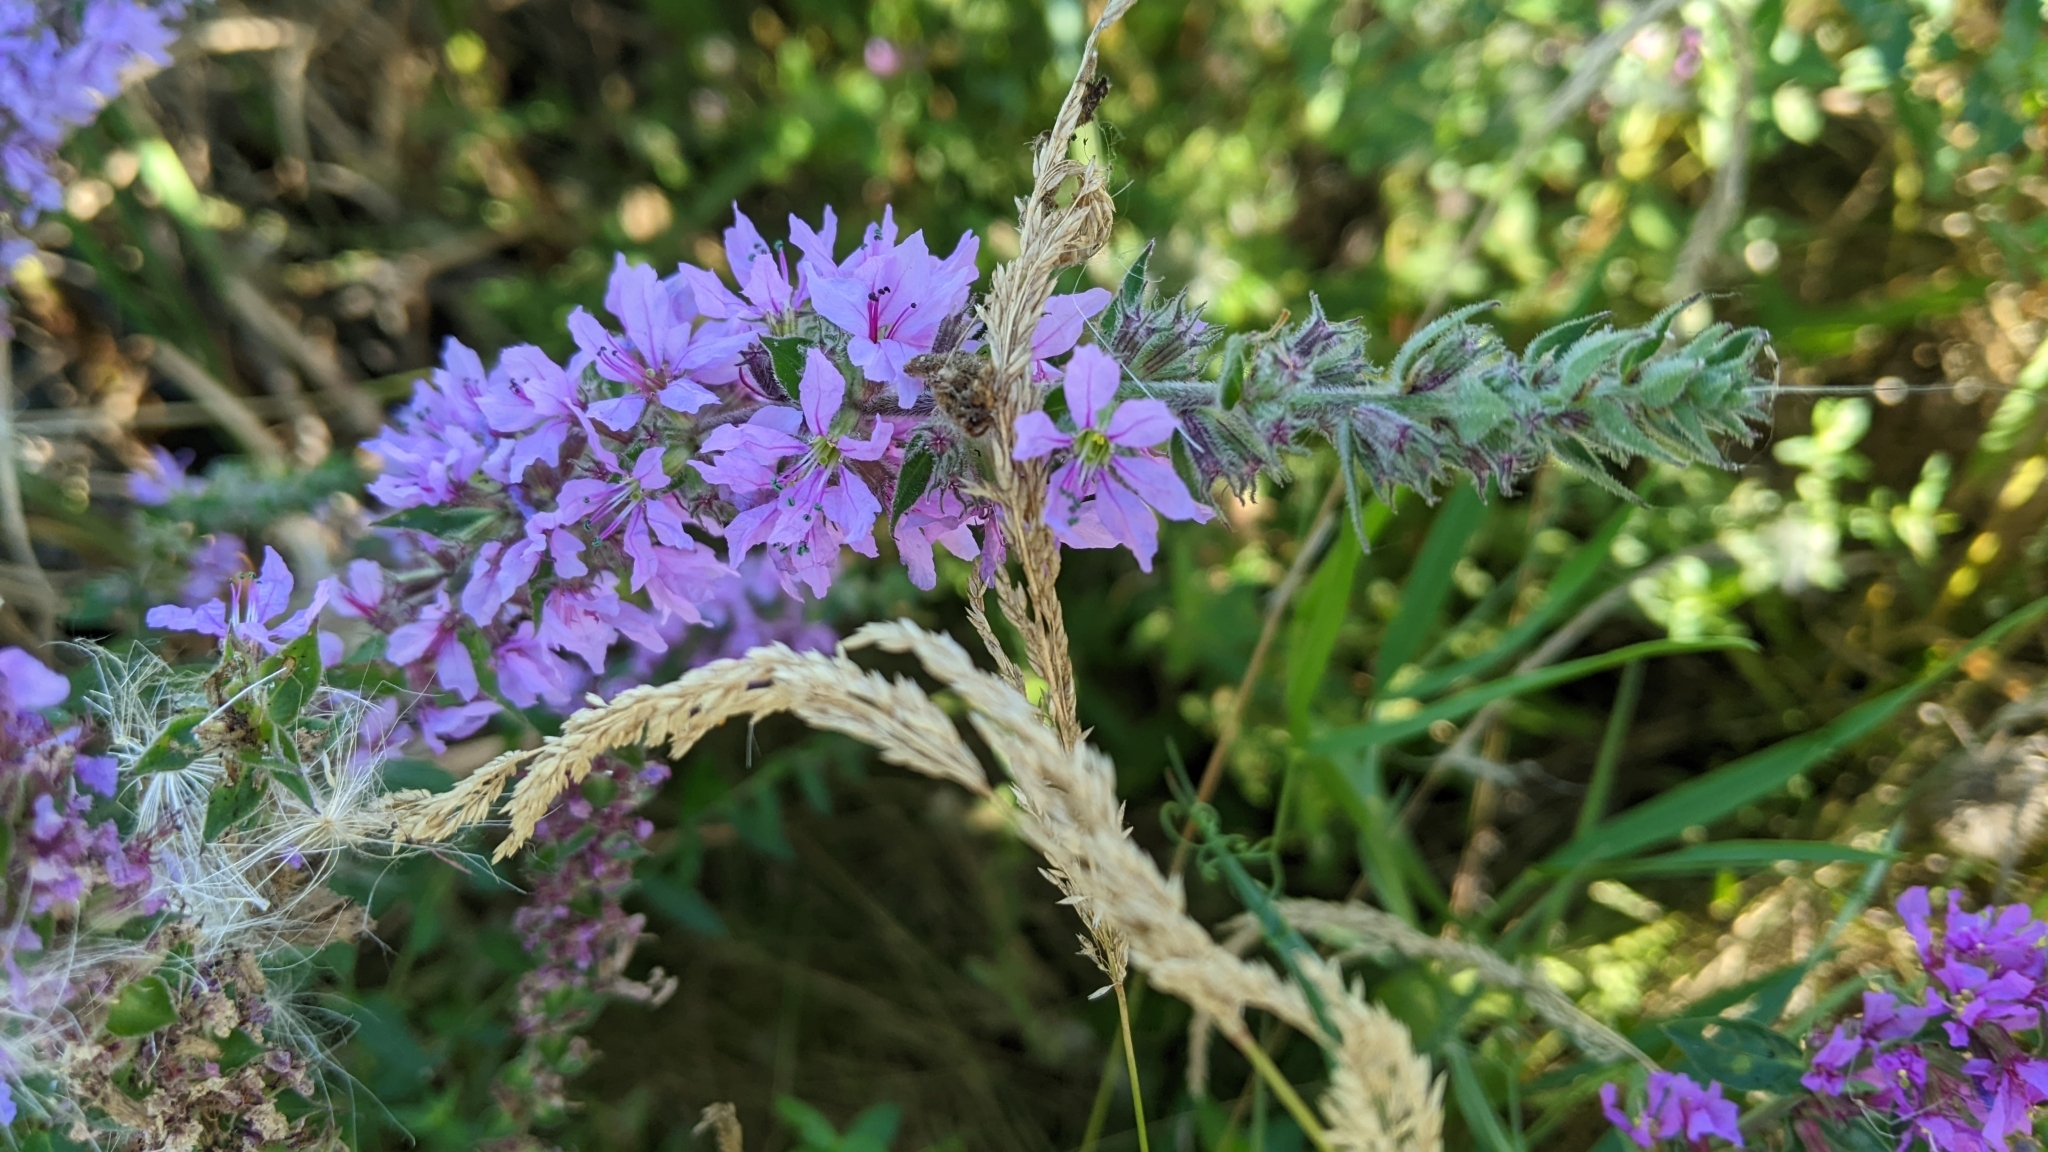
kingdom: Plantae
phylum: Tracheophyta
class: Magnoliopsida
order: Myrtales
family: Lythraceae
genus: Lythrum
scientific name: Lythrum salicaria
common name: Purple loosestrife
